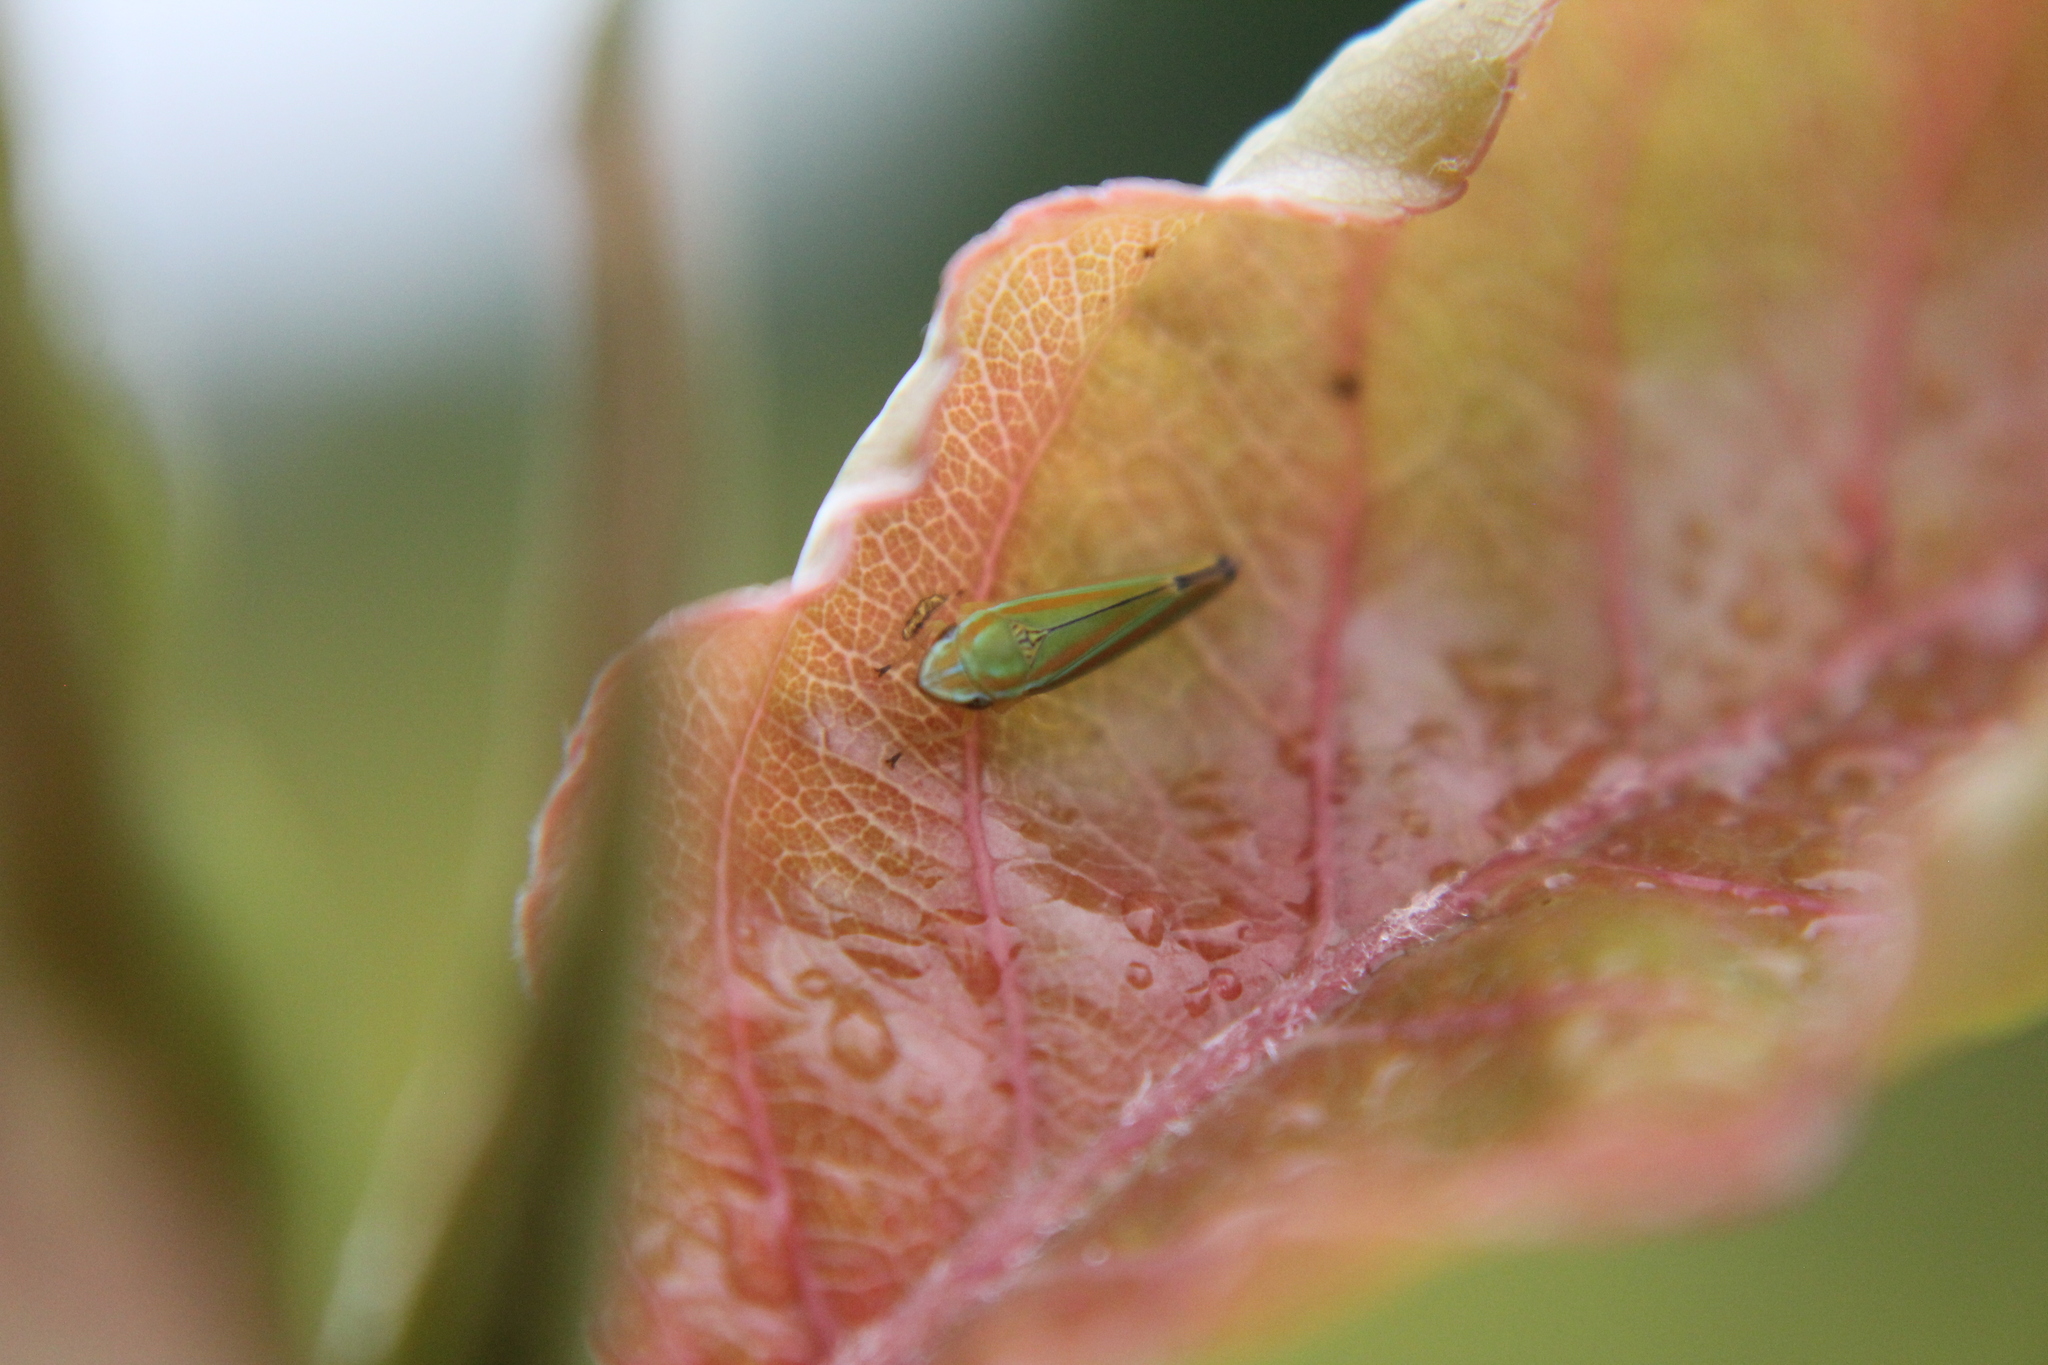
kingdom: Animalia
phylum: Arthropoda
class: Insecta
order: Hemiptera
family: Cicadellidae
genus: Graphocephala
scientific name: Graphocephala versuta
